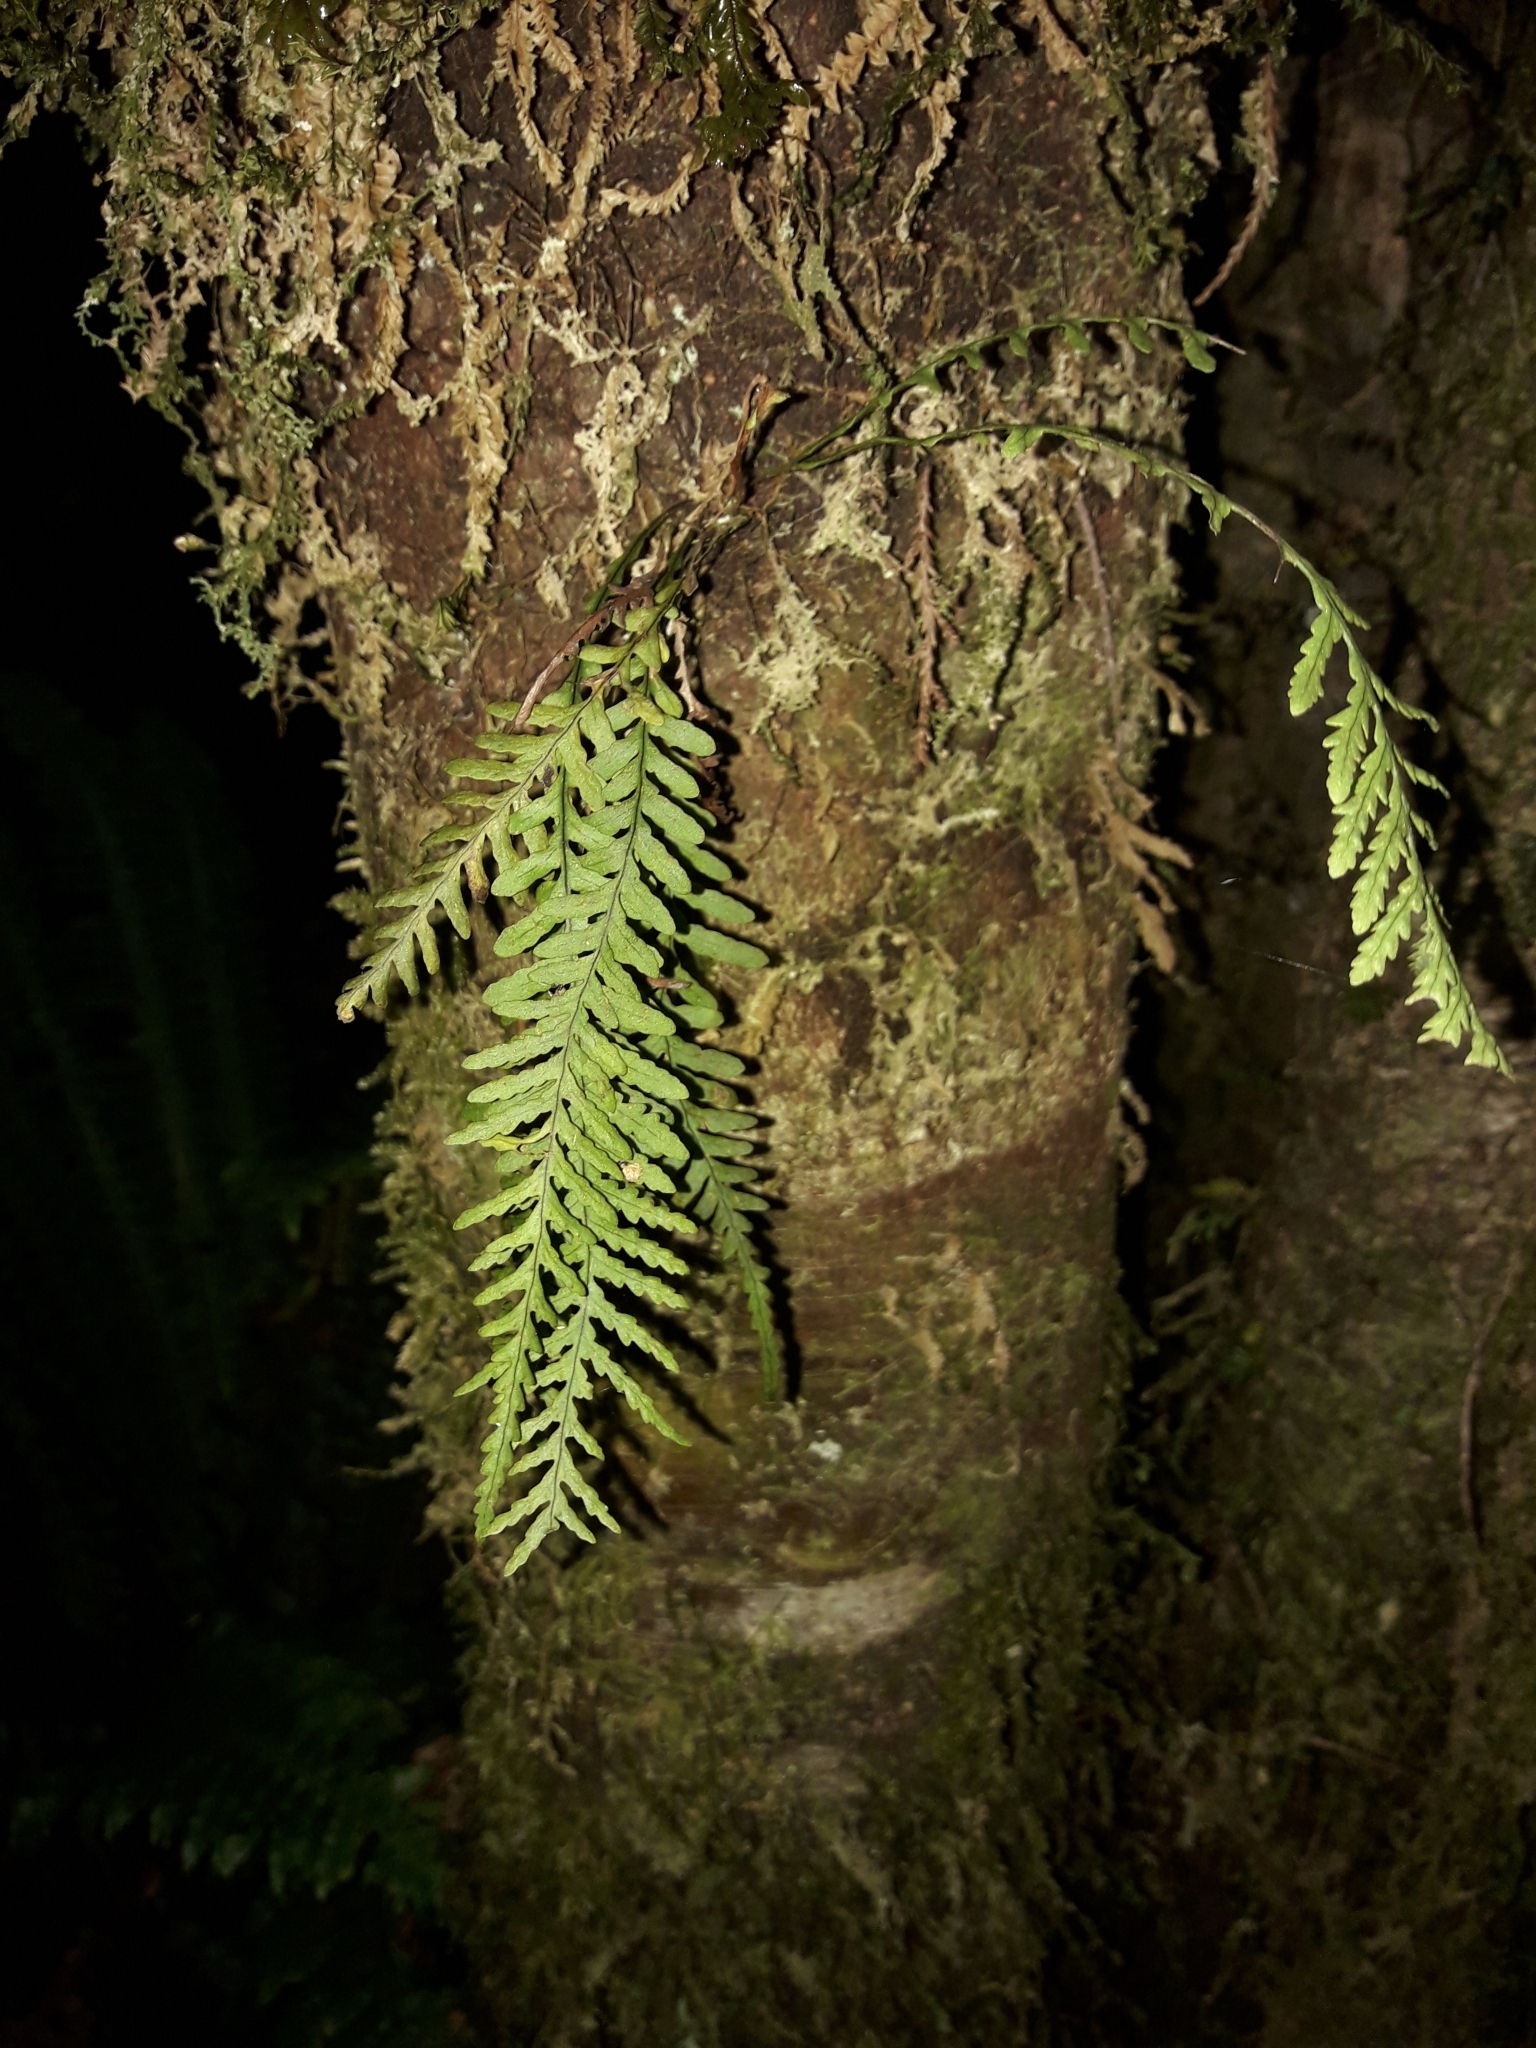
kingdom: Plantae
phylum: Tracheophyta
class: Polypodiopsida
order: Polypodiales
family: Polypodiaceae
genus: Notogrammitis
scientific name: Notogrammitis heterophylla
